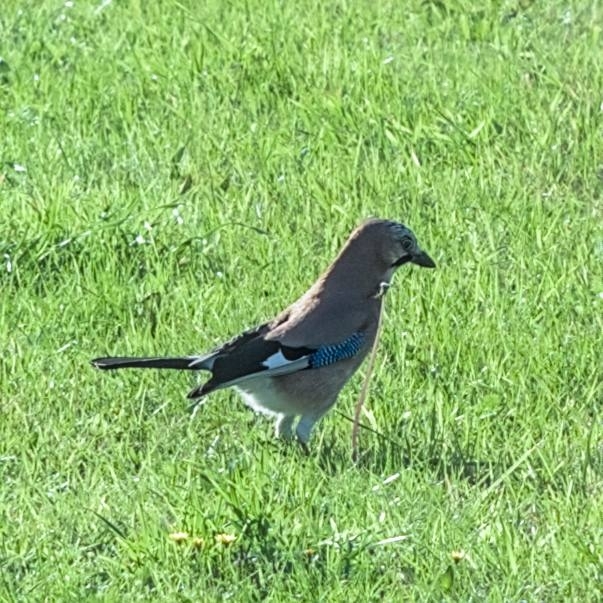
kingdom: Animalia
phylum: Chordata
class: Aves
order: Passeriformes
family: Corvidae
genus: Garrulus
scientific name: Garrulus glandarius
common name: Eurasian jay
